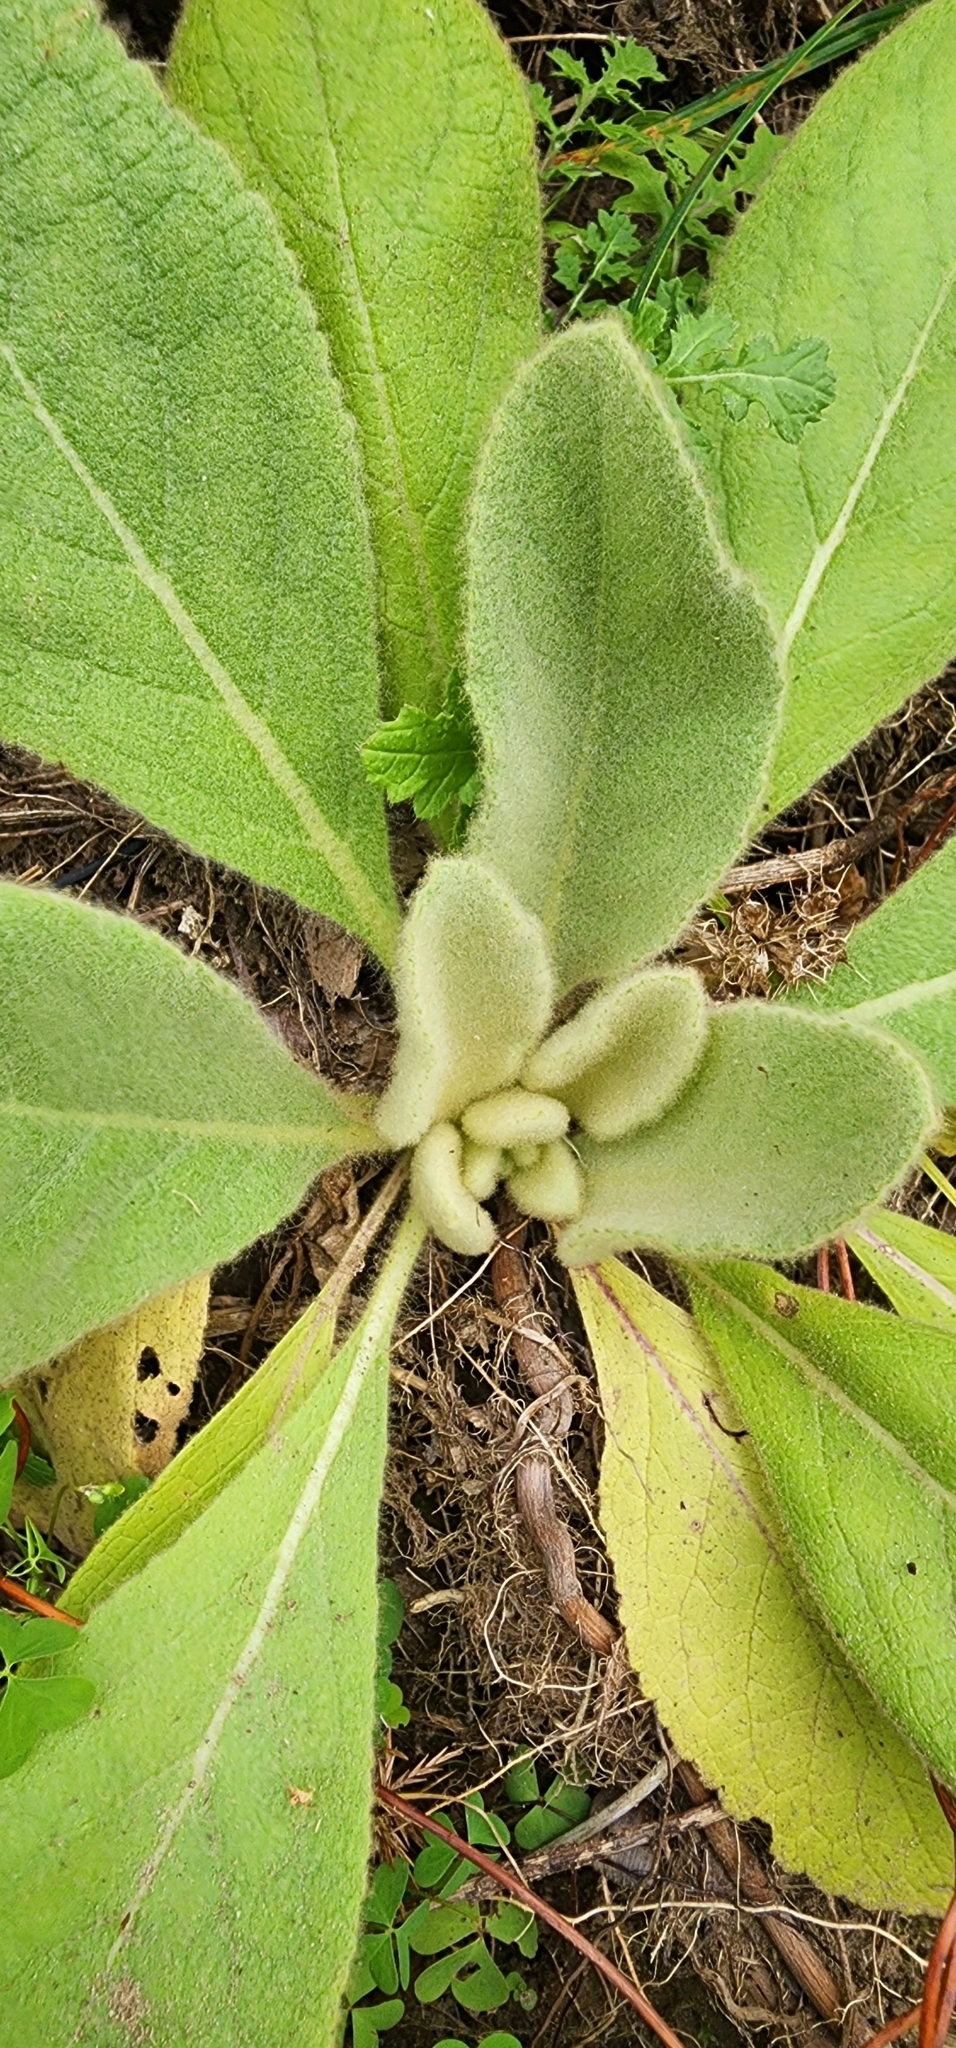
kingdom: Plantae
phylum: Tracheophyta
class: Magnoliopsida
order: Lamiales
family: Scrophulariaceae
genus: Verbascum
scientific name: Verbascum thapsus
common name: Common mullein
